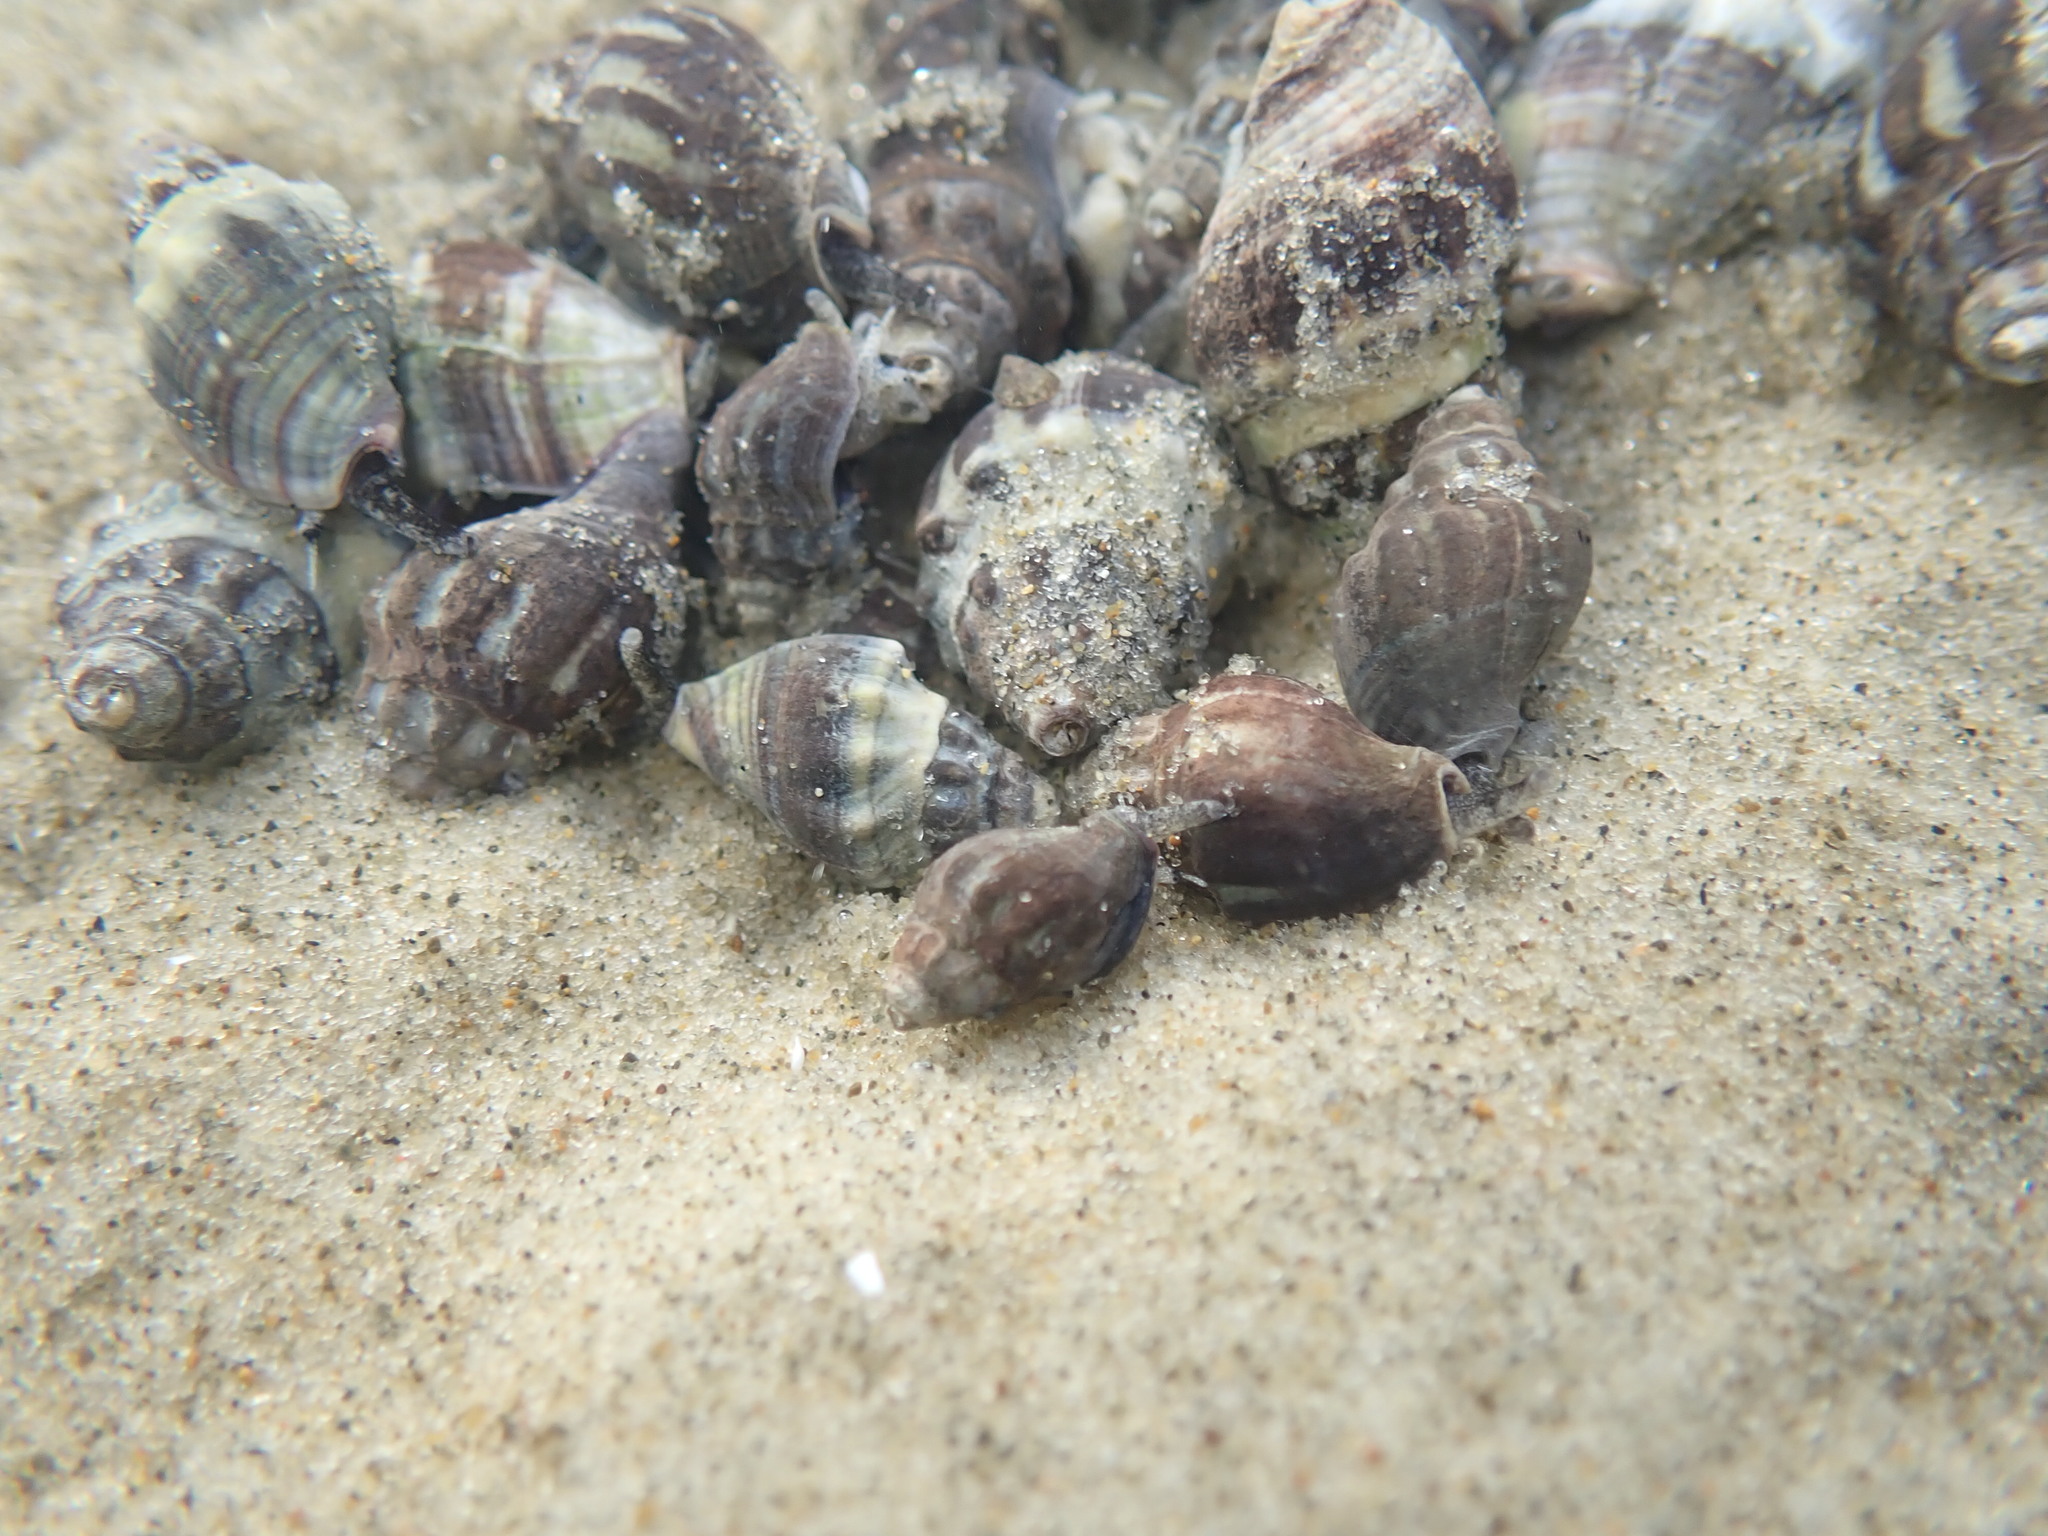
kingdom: Animalia
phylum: Mollusca
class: Gastropoda
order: Neogastropoda
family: Cominellidae
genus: Cominella
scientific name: Cominella glandiformis
